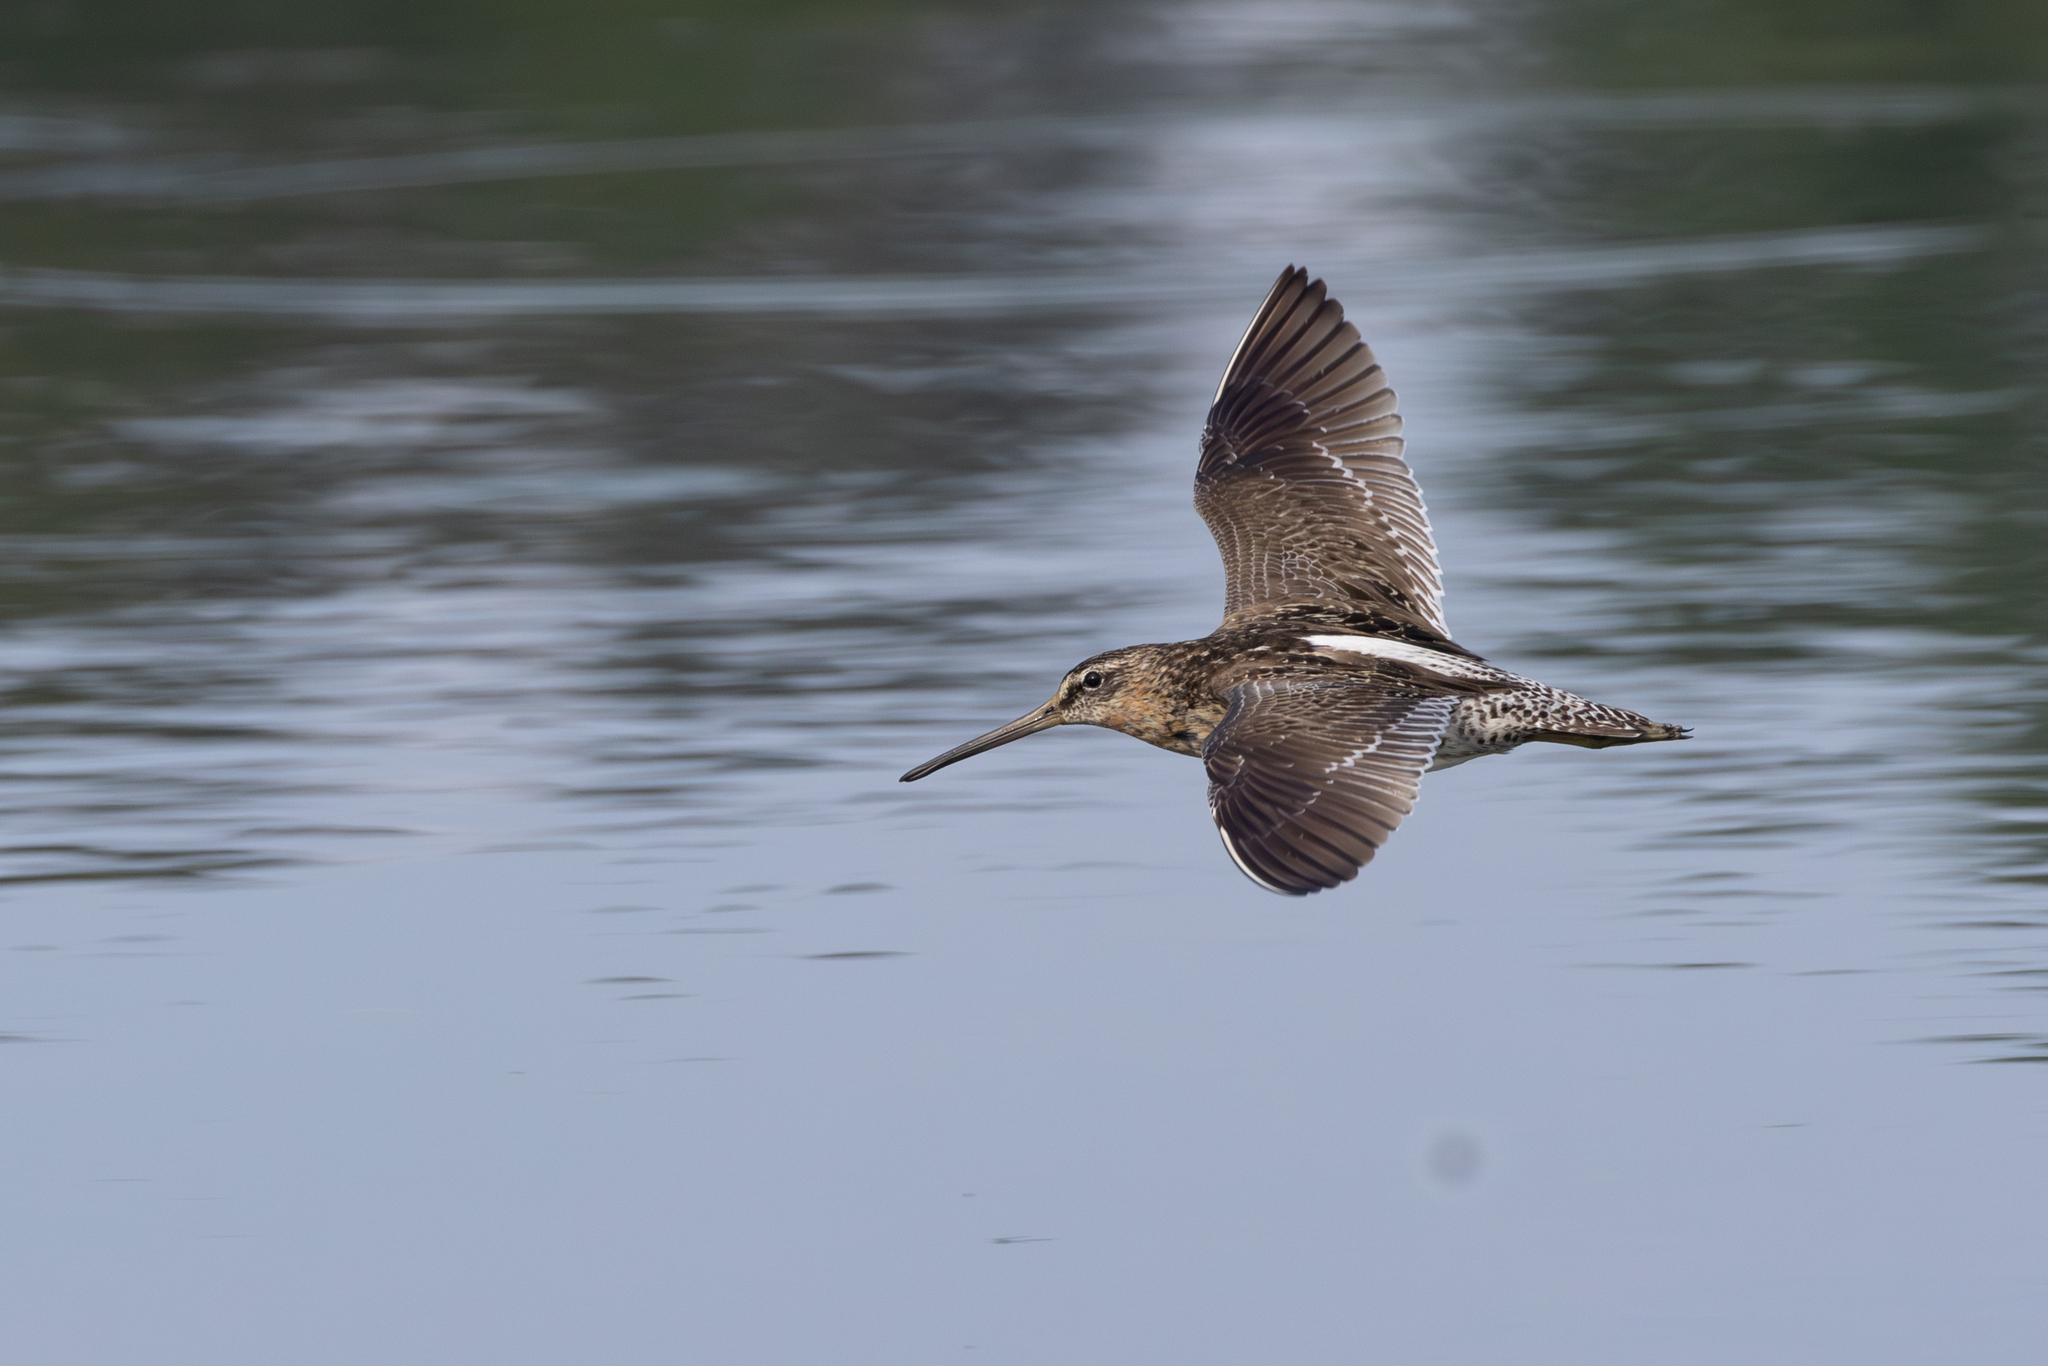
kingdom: Animalia
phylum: Chordata
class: Aves
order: Charadriiformes
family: Scolopacidae
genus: Limnodromus
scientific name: Limnodromus griseus
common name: Short-billed dowitcher
